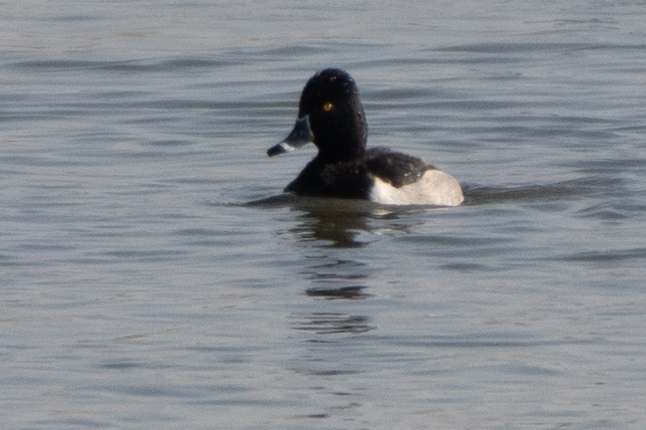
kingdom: Animalia
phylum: Chordata
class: Aves
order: Anseriformes
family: Anatidae
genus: Aythya
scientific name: Aythya collaris
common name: Ring-necked duck
